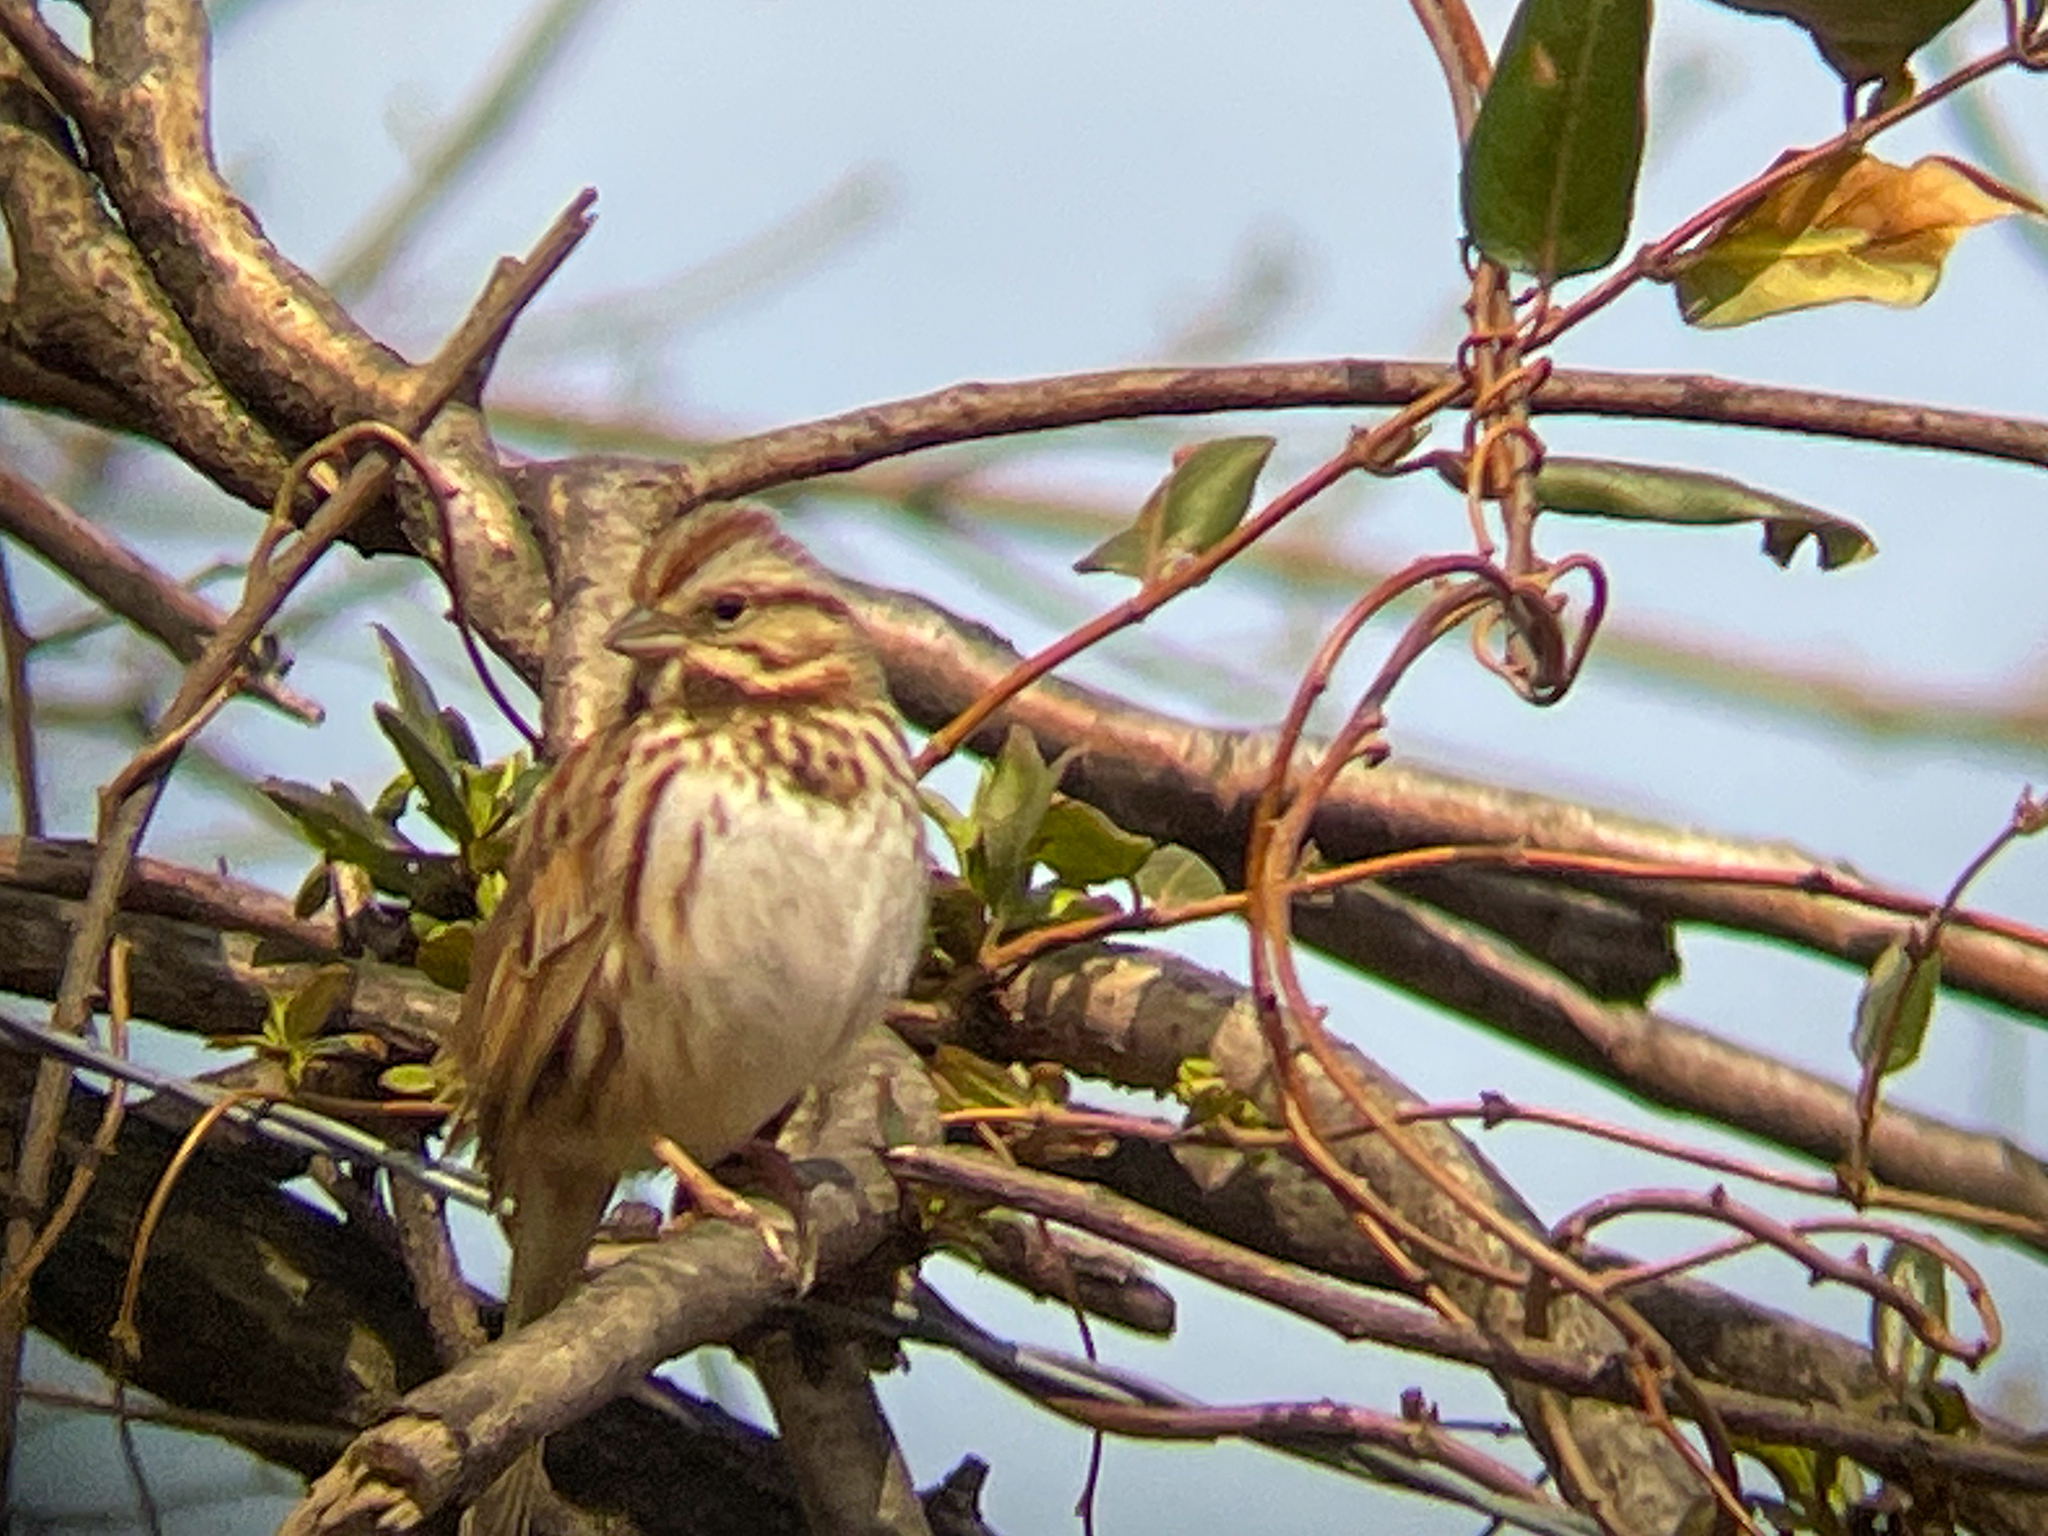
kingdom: Animalia
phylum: Chordata
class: Aves
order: Passeriformes
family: Passerellidae
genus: Melospiza
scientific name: Melospiza melodia
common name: Song sparrow
